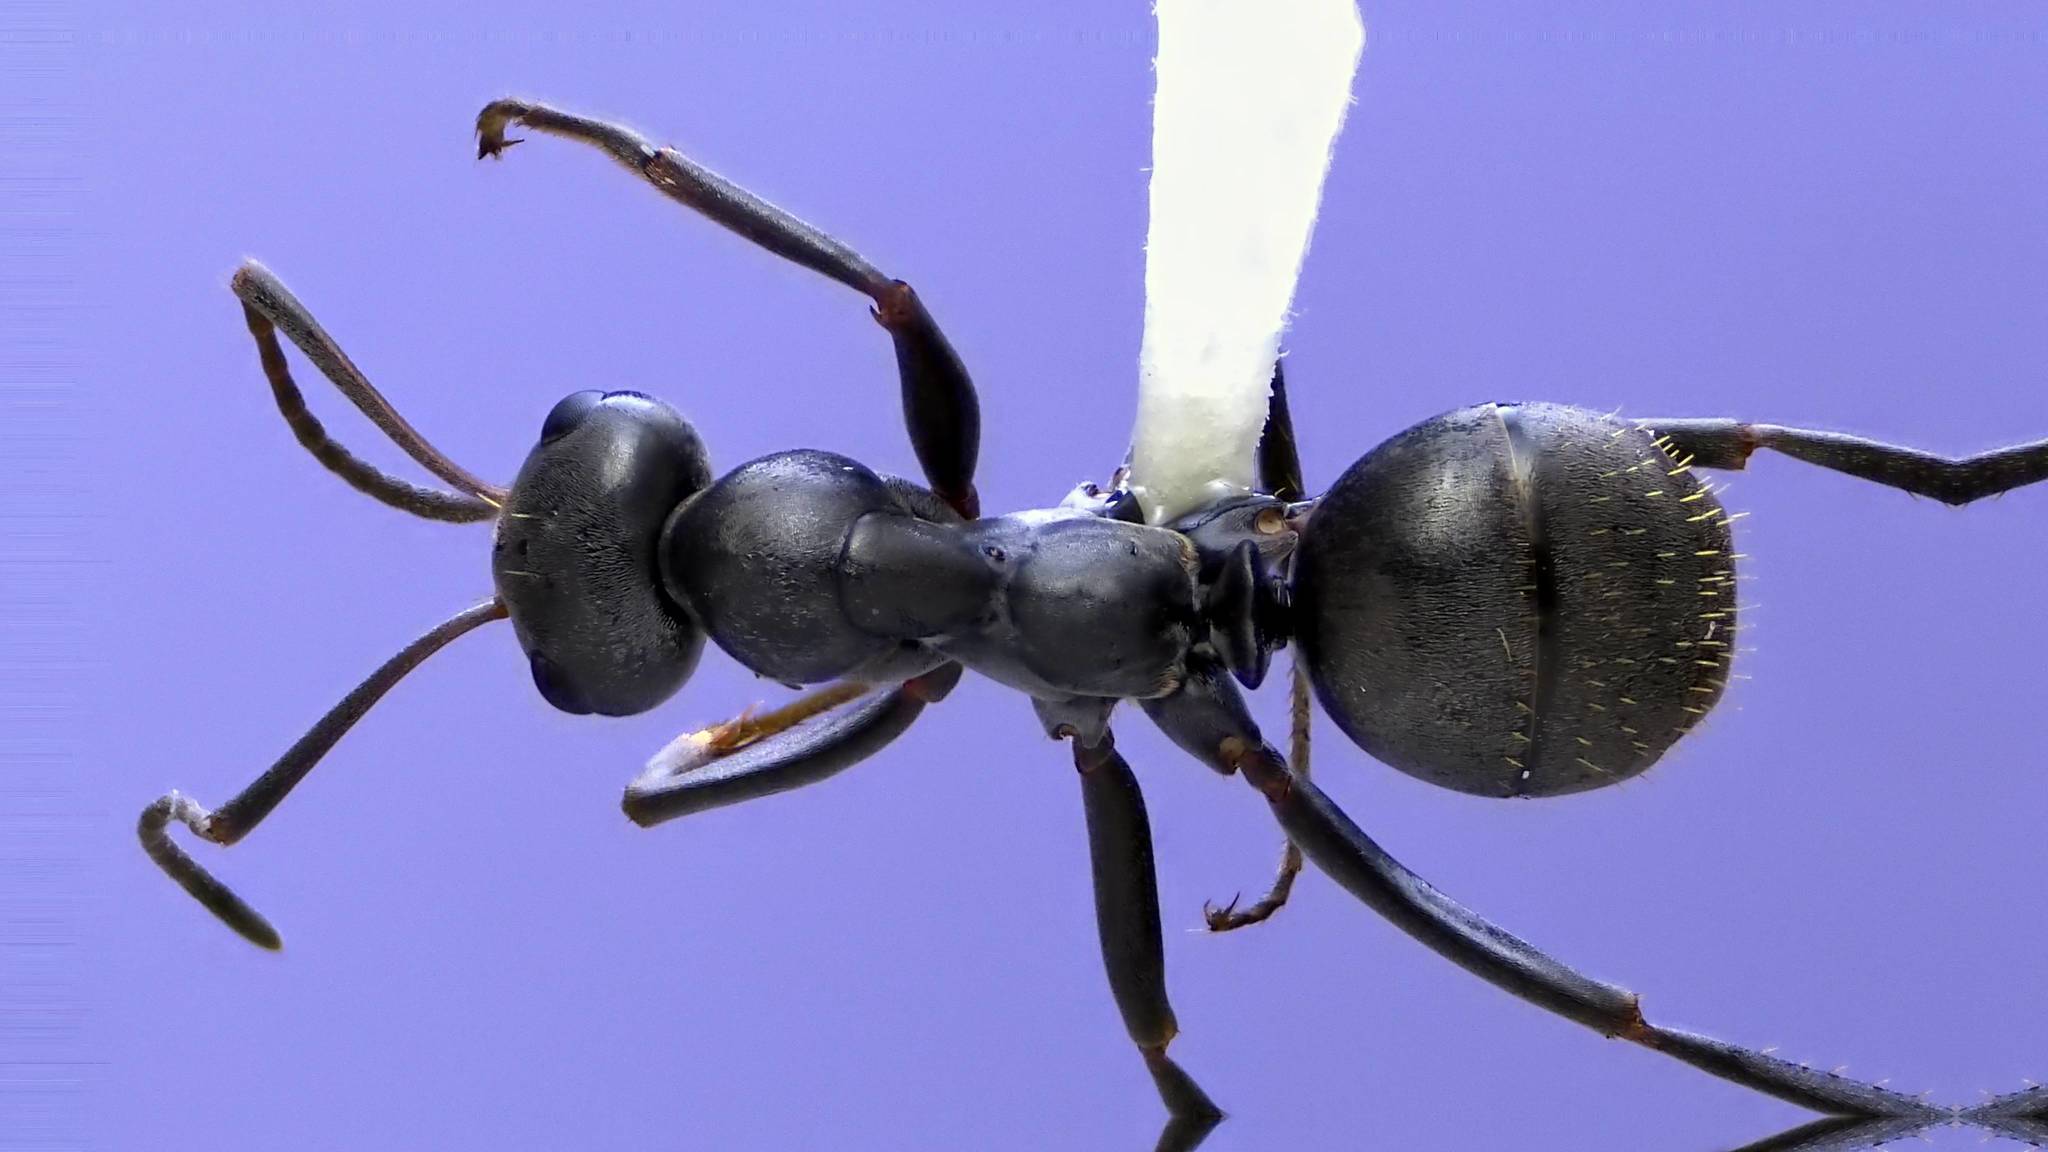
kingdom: Animalia
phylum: Arthropoda
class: Insecta
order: Hymenoptera
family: Formicidae
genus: Formica
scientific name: Formica subsericea
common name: Silky field ant
